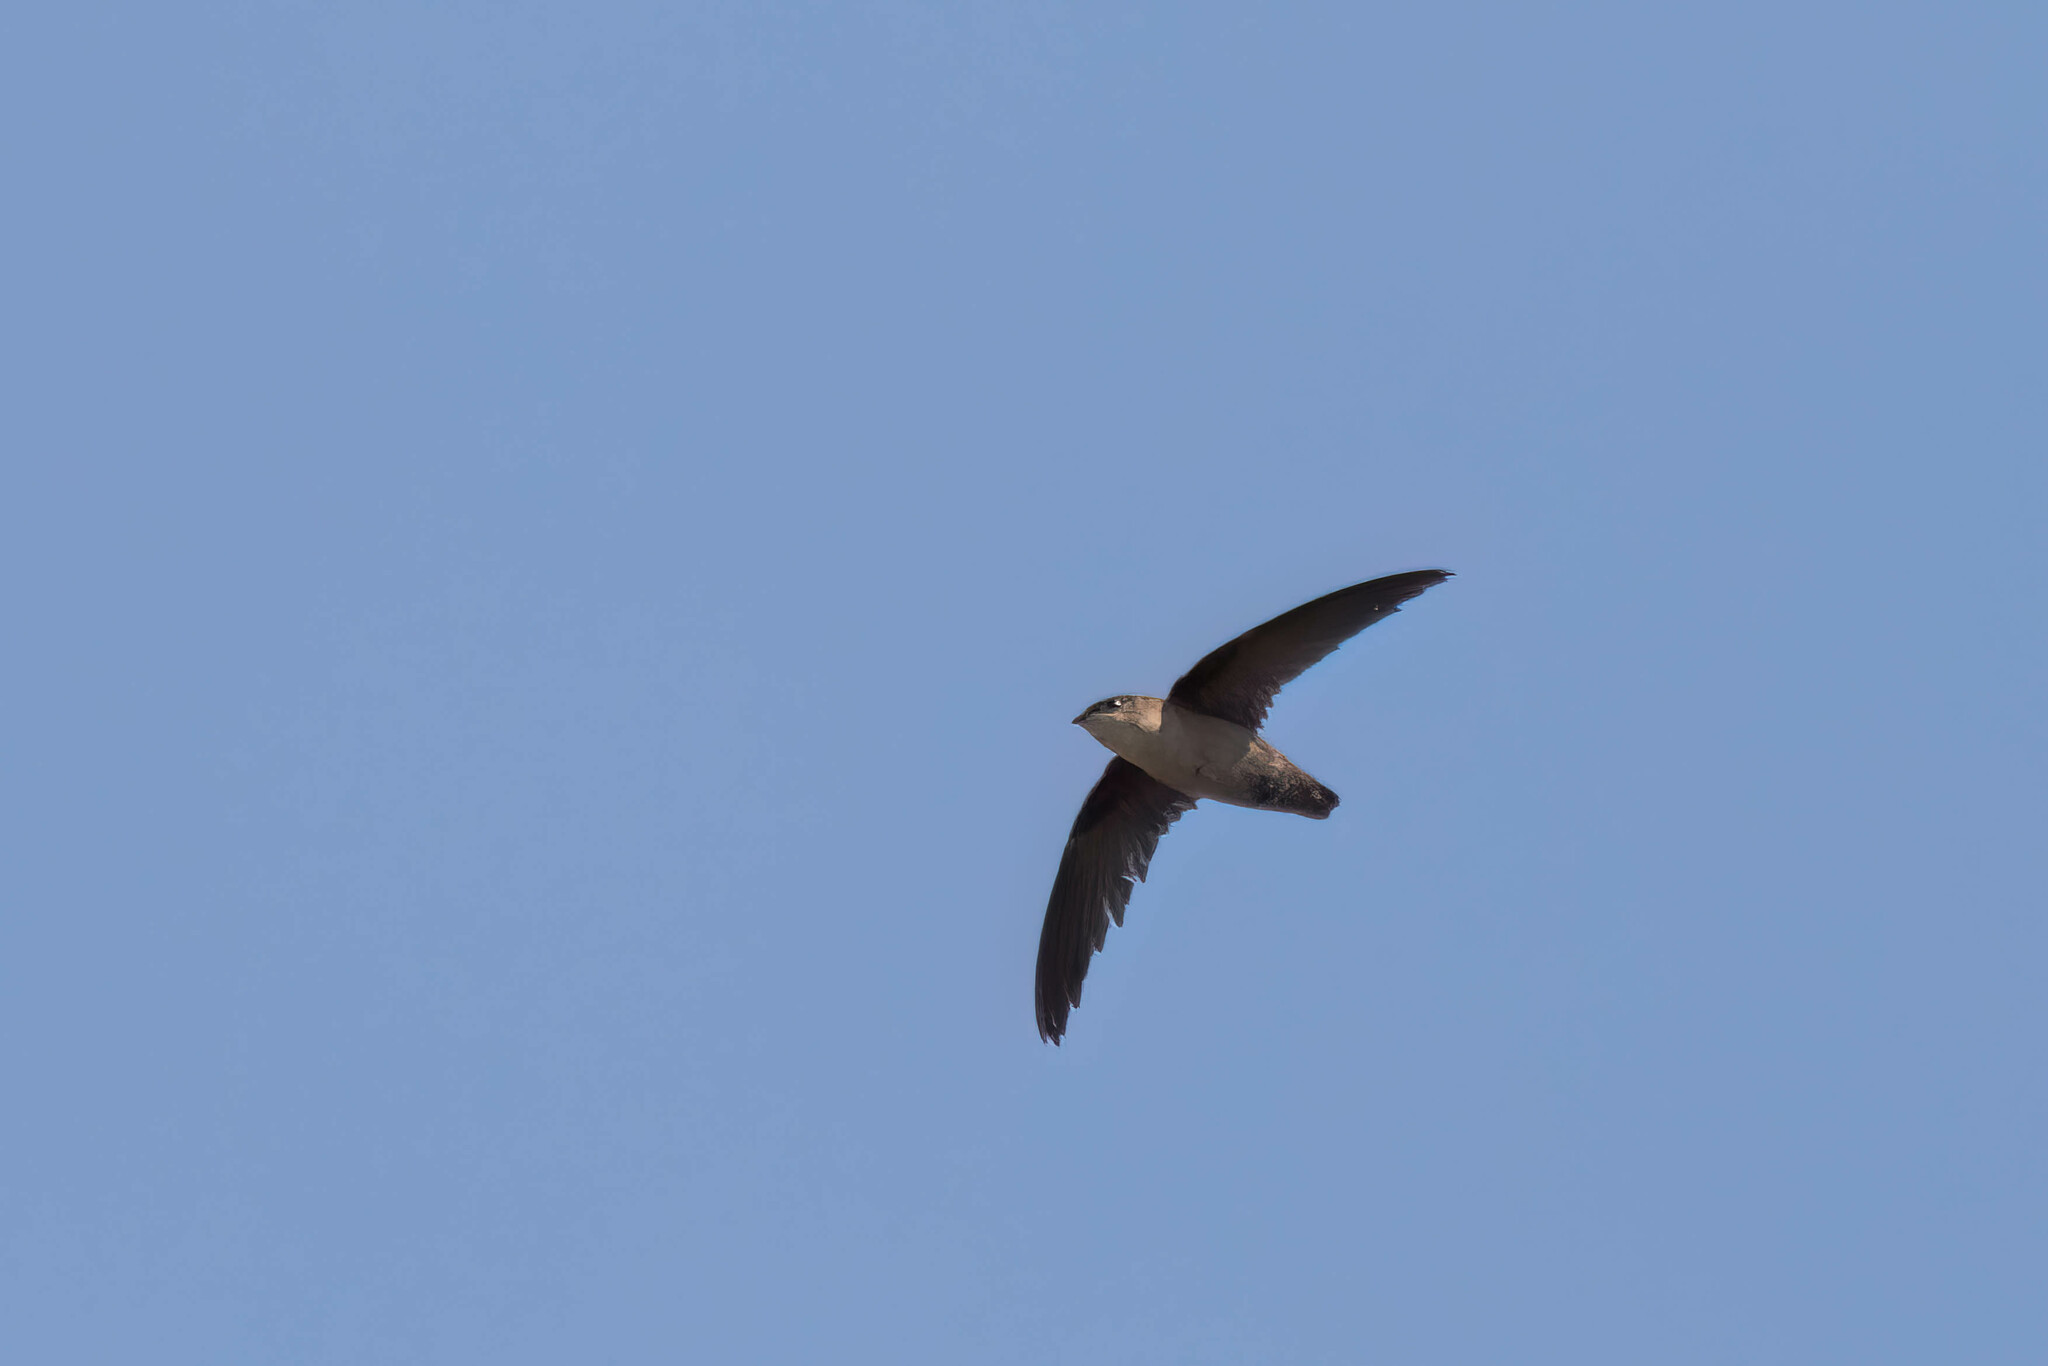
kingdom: Animalia
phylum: Chordata
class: Aves
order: Apodiformes
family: Apodidae
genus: Chaetura
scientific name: Chaetura vauxi
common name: Vaux's swift
